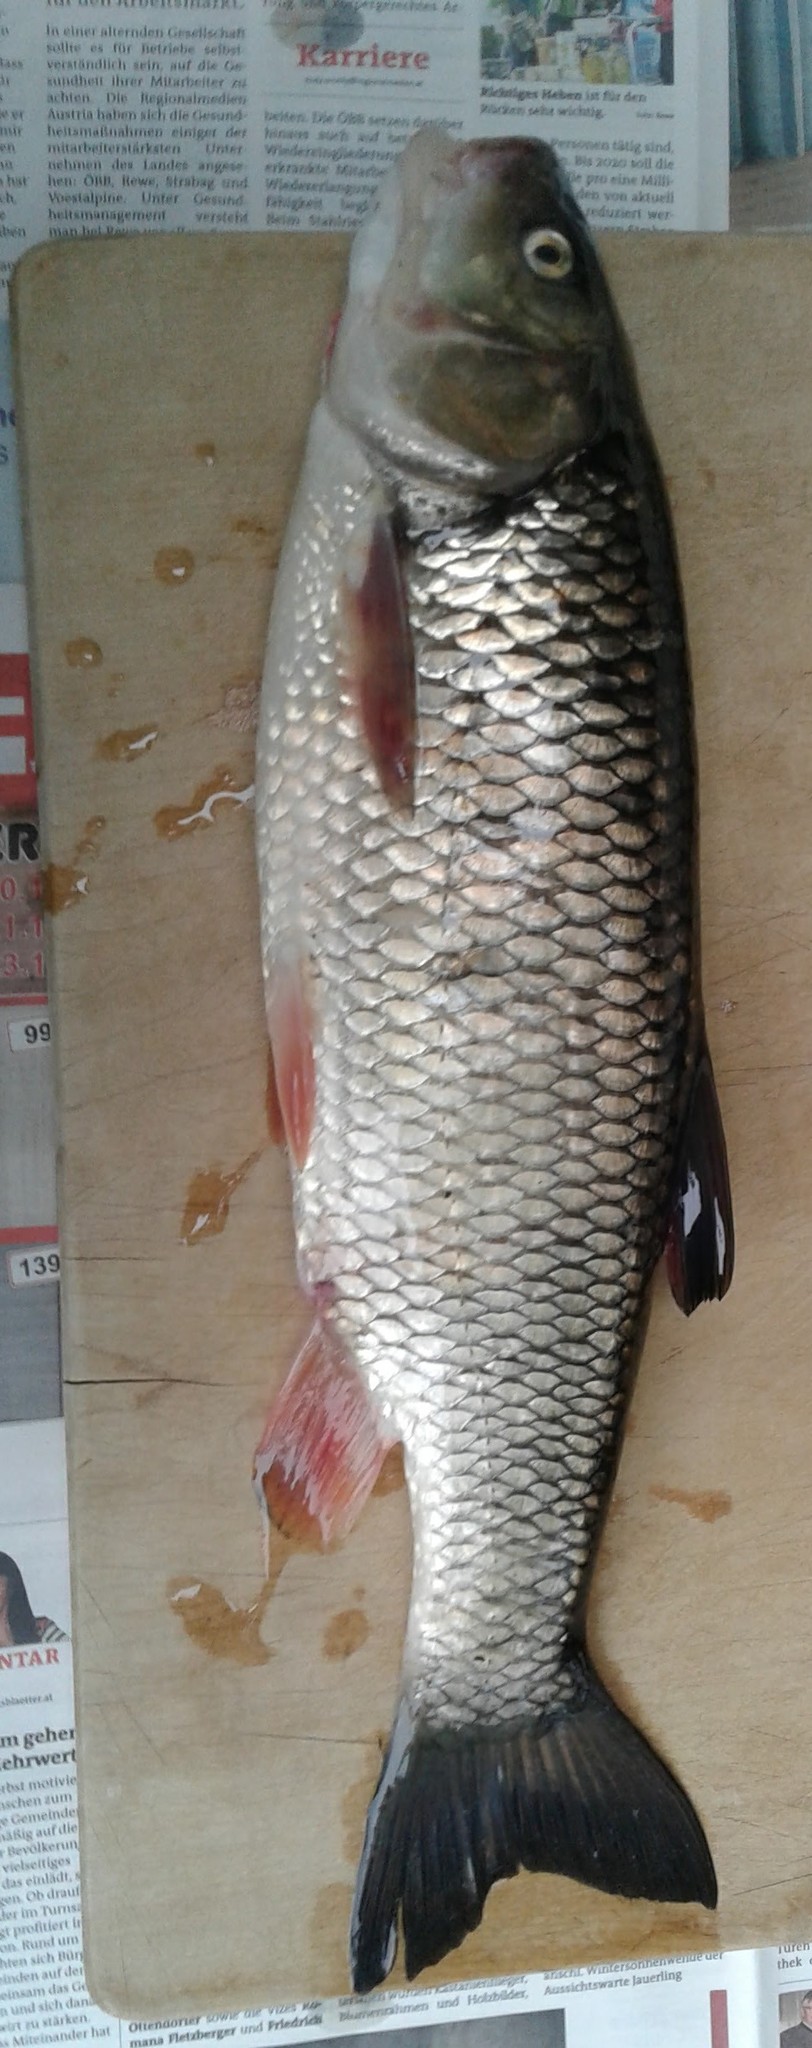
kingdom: Animalia
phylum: Chordata
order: Cypriniformes
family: Cyprinidae
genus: Squalius
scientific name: Squalius cephalus
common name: Chub
